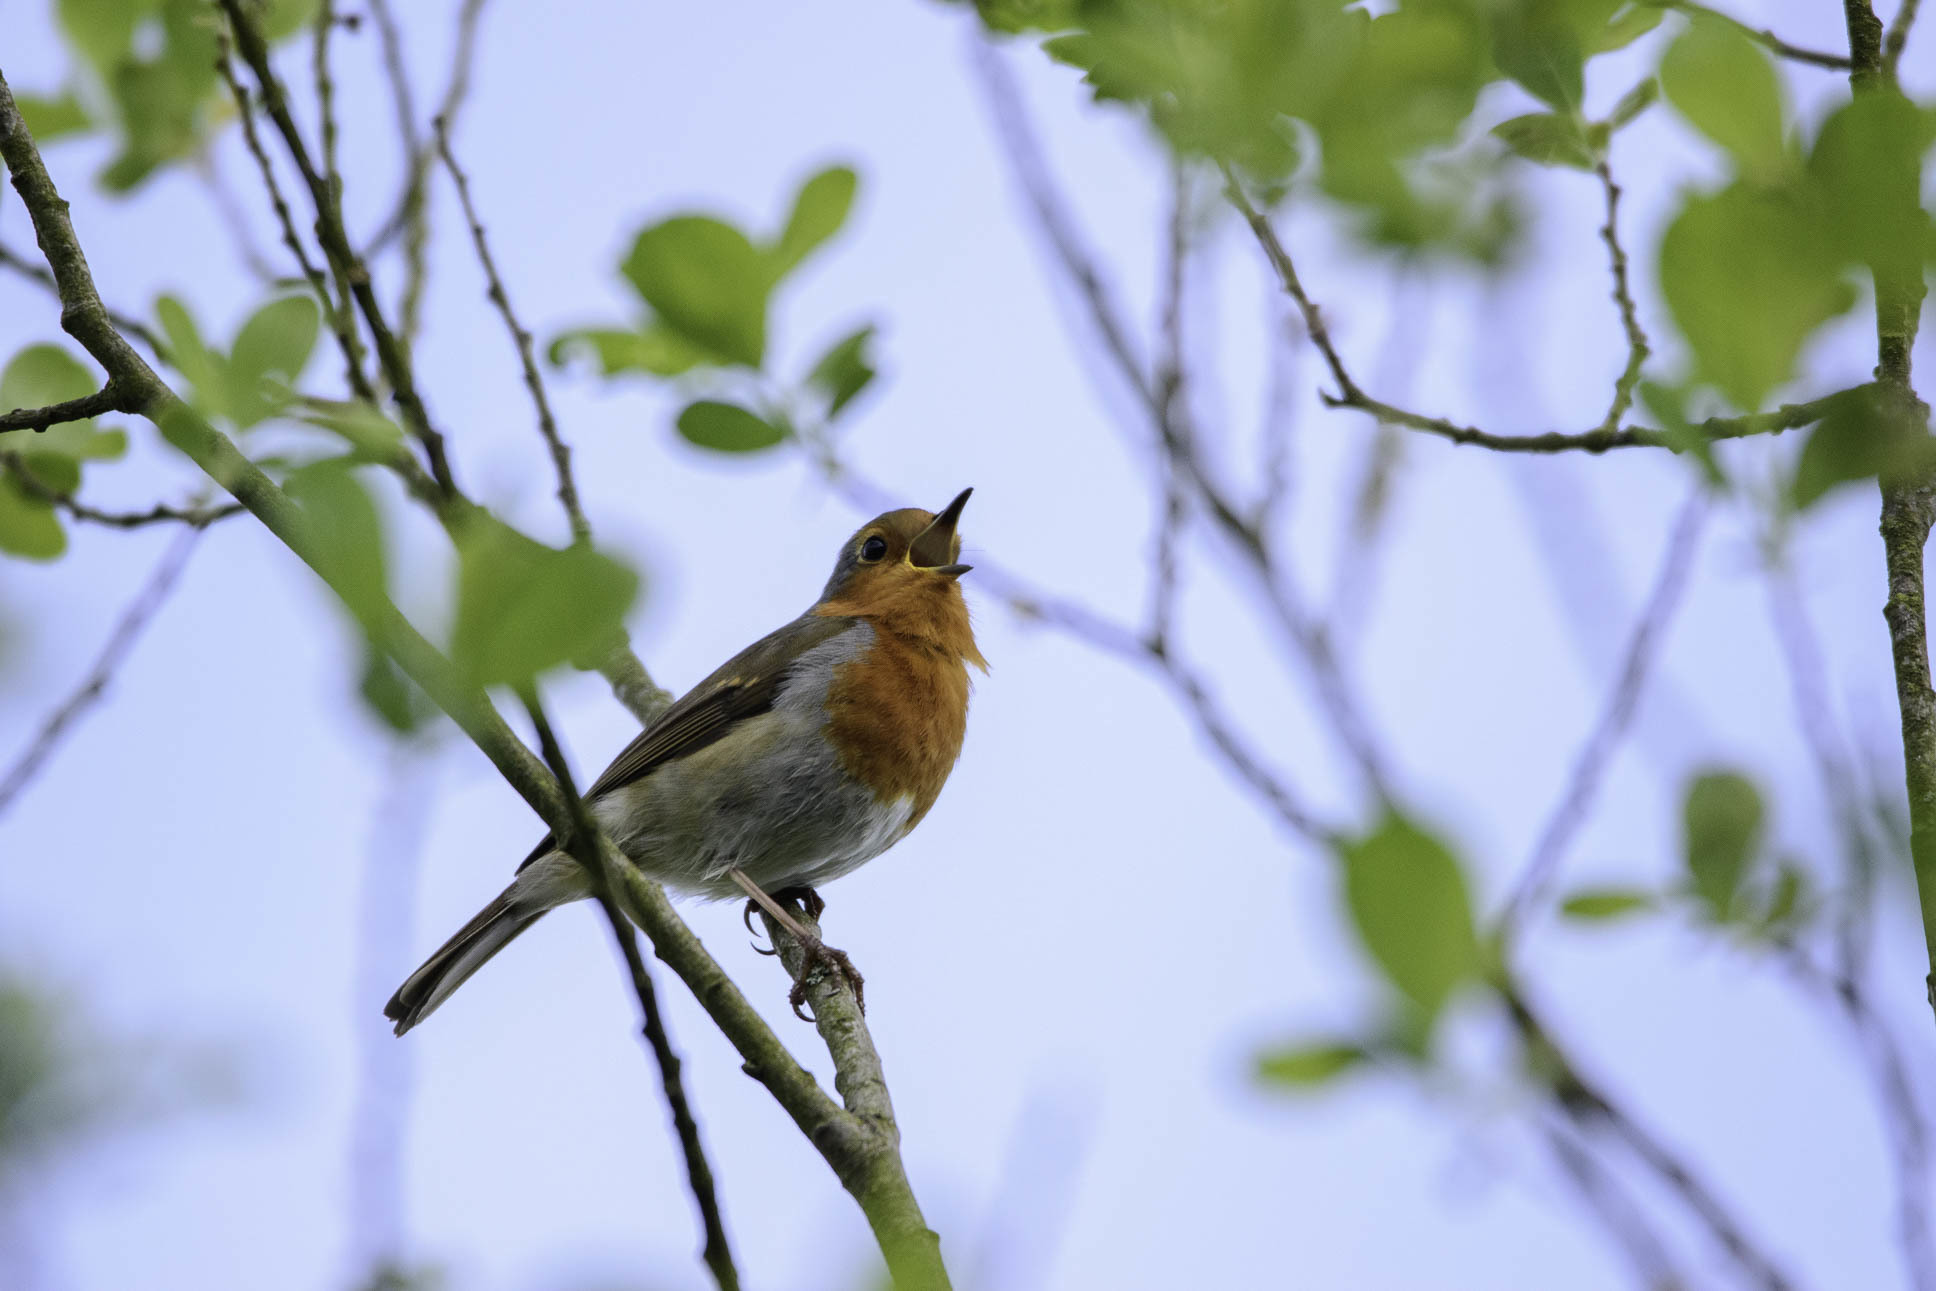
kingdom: Animalia
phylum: Chordata
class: Aves
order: Passeriformes
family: Muscicapidae
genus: Erithacus
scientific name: Erithacus rubecula
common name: European robin
